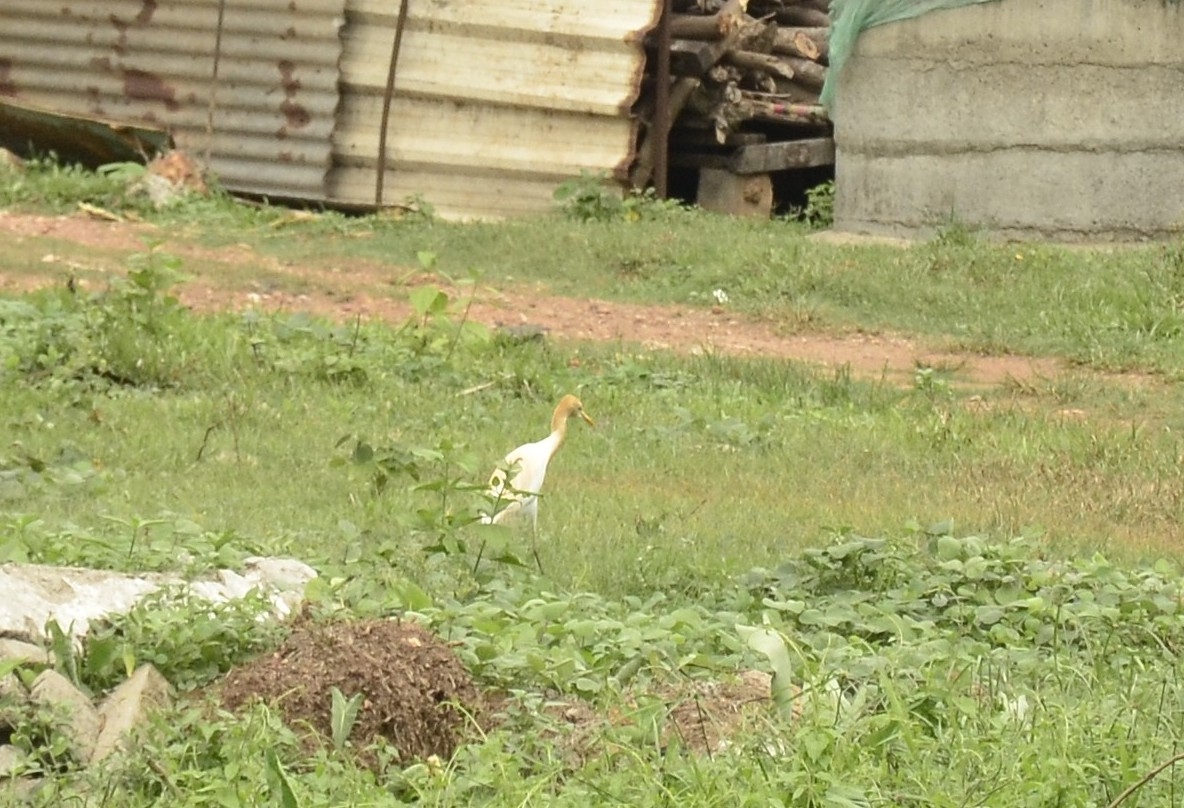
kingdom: Animalia
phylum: Chordata
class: Aves
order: Pelecaniformes
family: Ardeidae
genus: Bubulcus
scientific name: Bubulcus coromandus
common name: Eastern cattle egret
